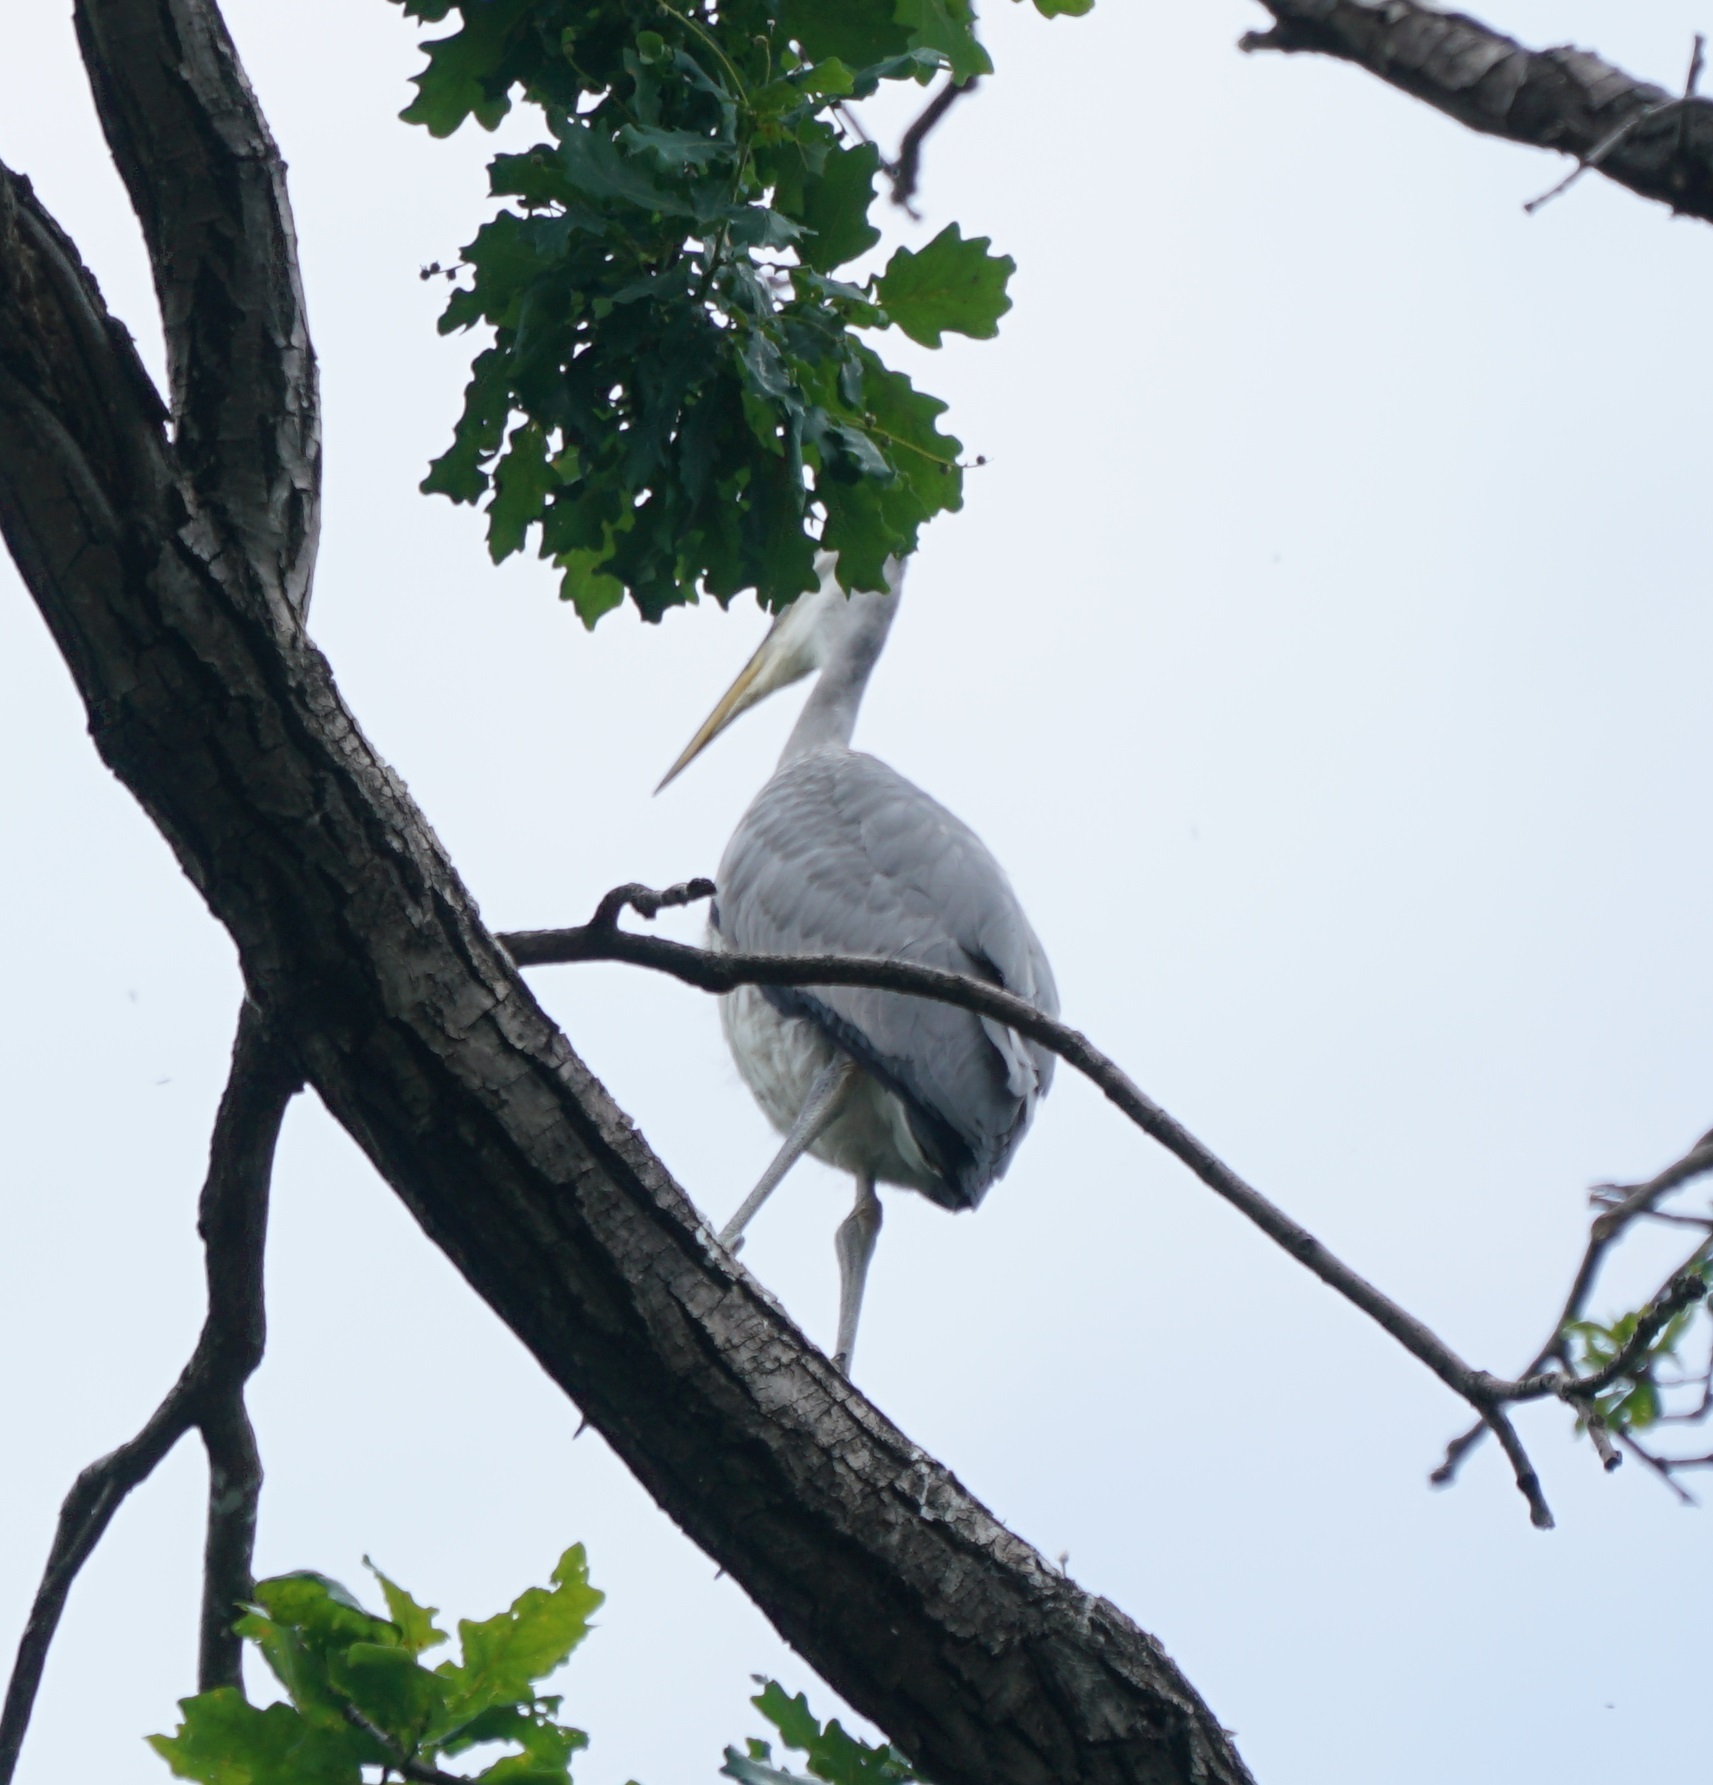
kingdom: Animalia
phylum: Chordata
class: Aves
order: Pelecaniformes
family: Ardeidae
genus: Ardea
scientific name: Ardea cinerea
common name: Grey heron
